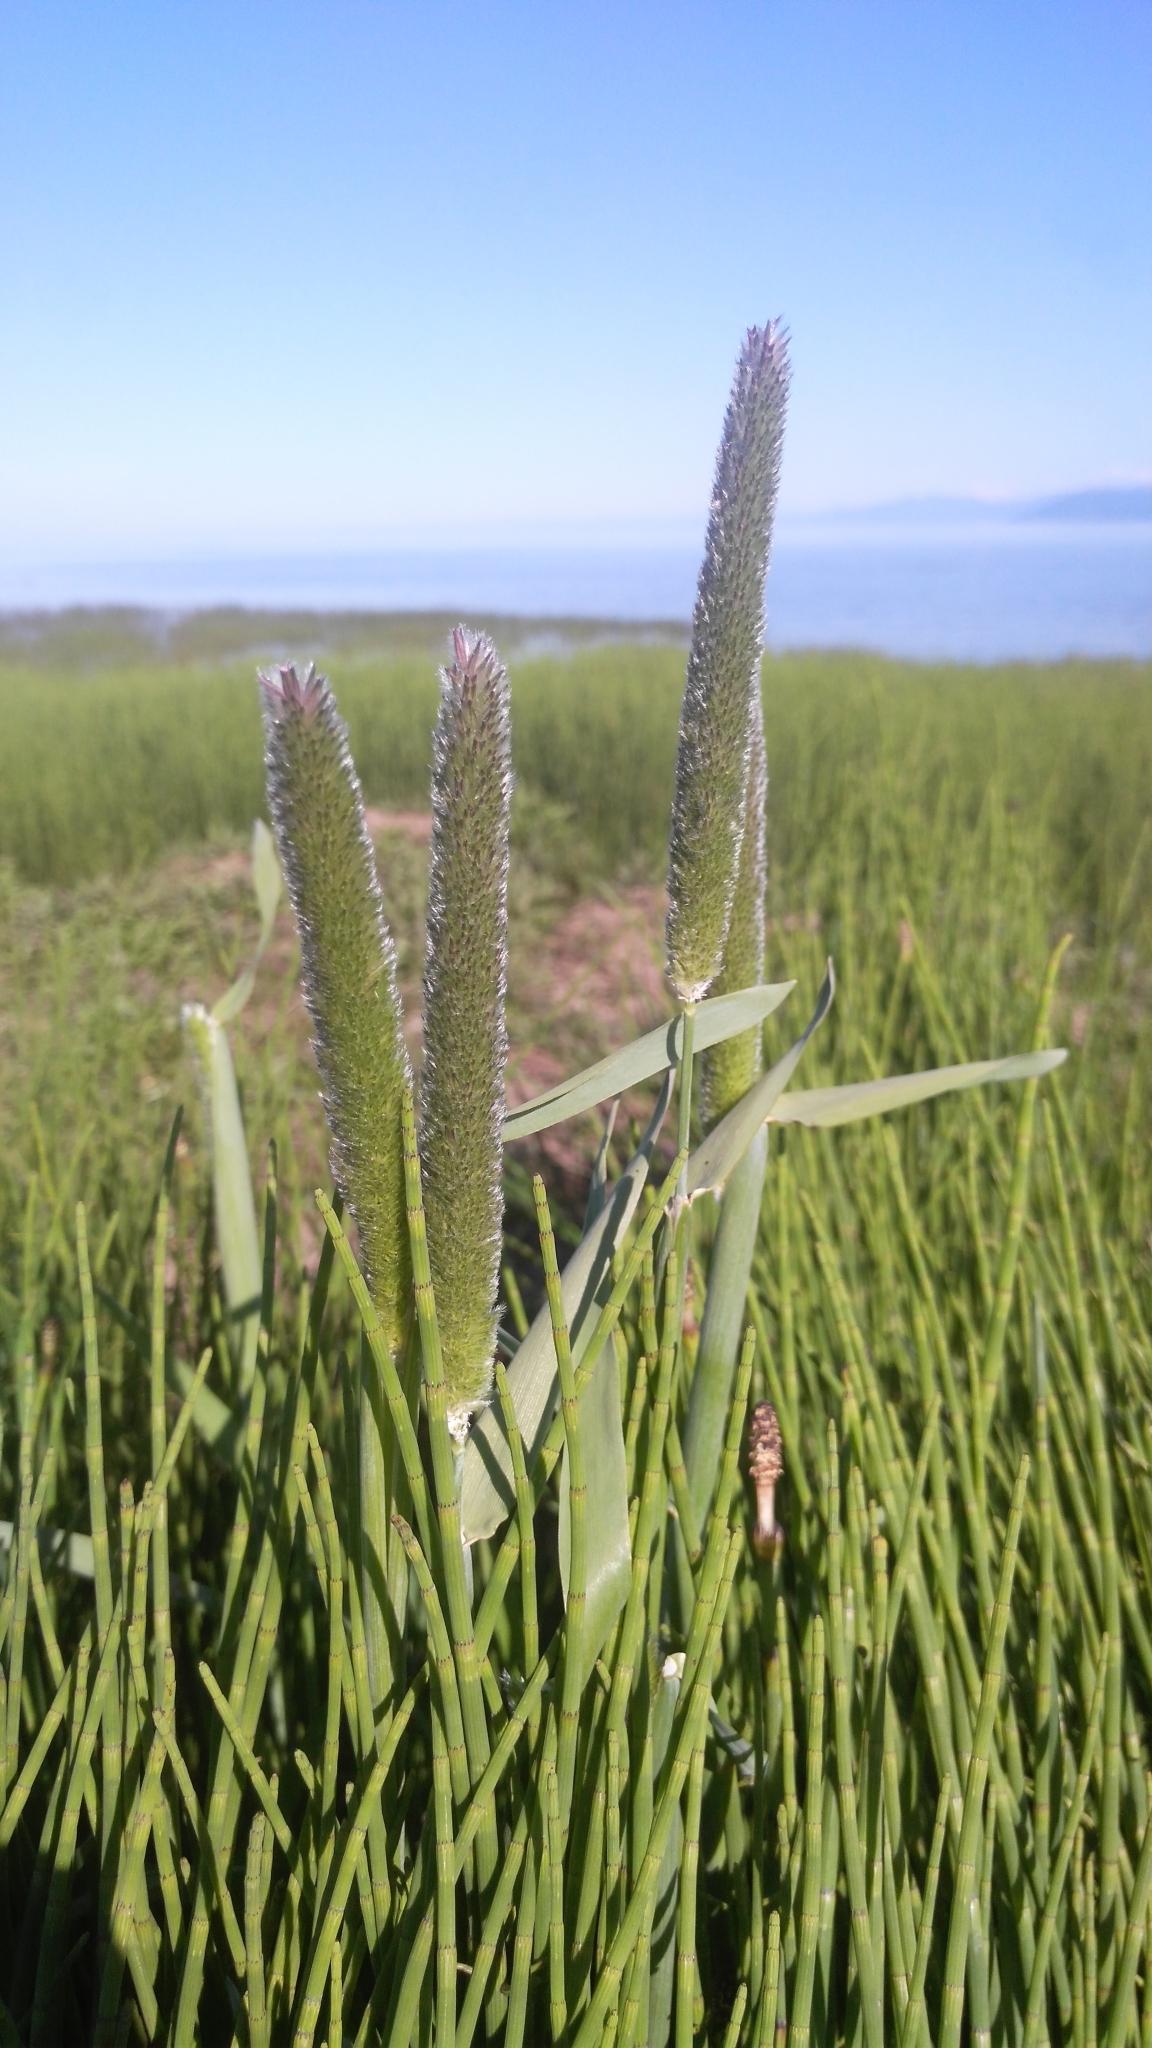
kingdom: Plantae
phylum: Tracheophyta
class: Liliopsida
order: Poales
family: Poaceae
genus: Alopecurus
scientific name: Alopecurus arundinaceus
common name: Creeping meadow foxtail
